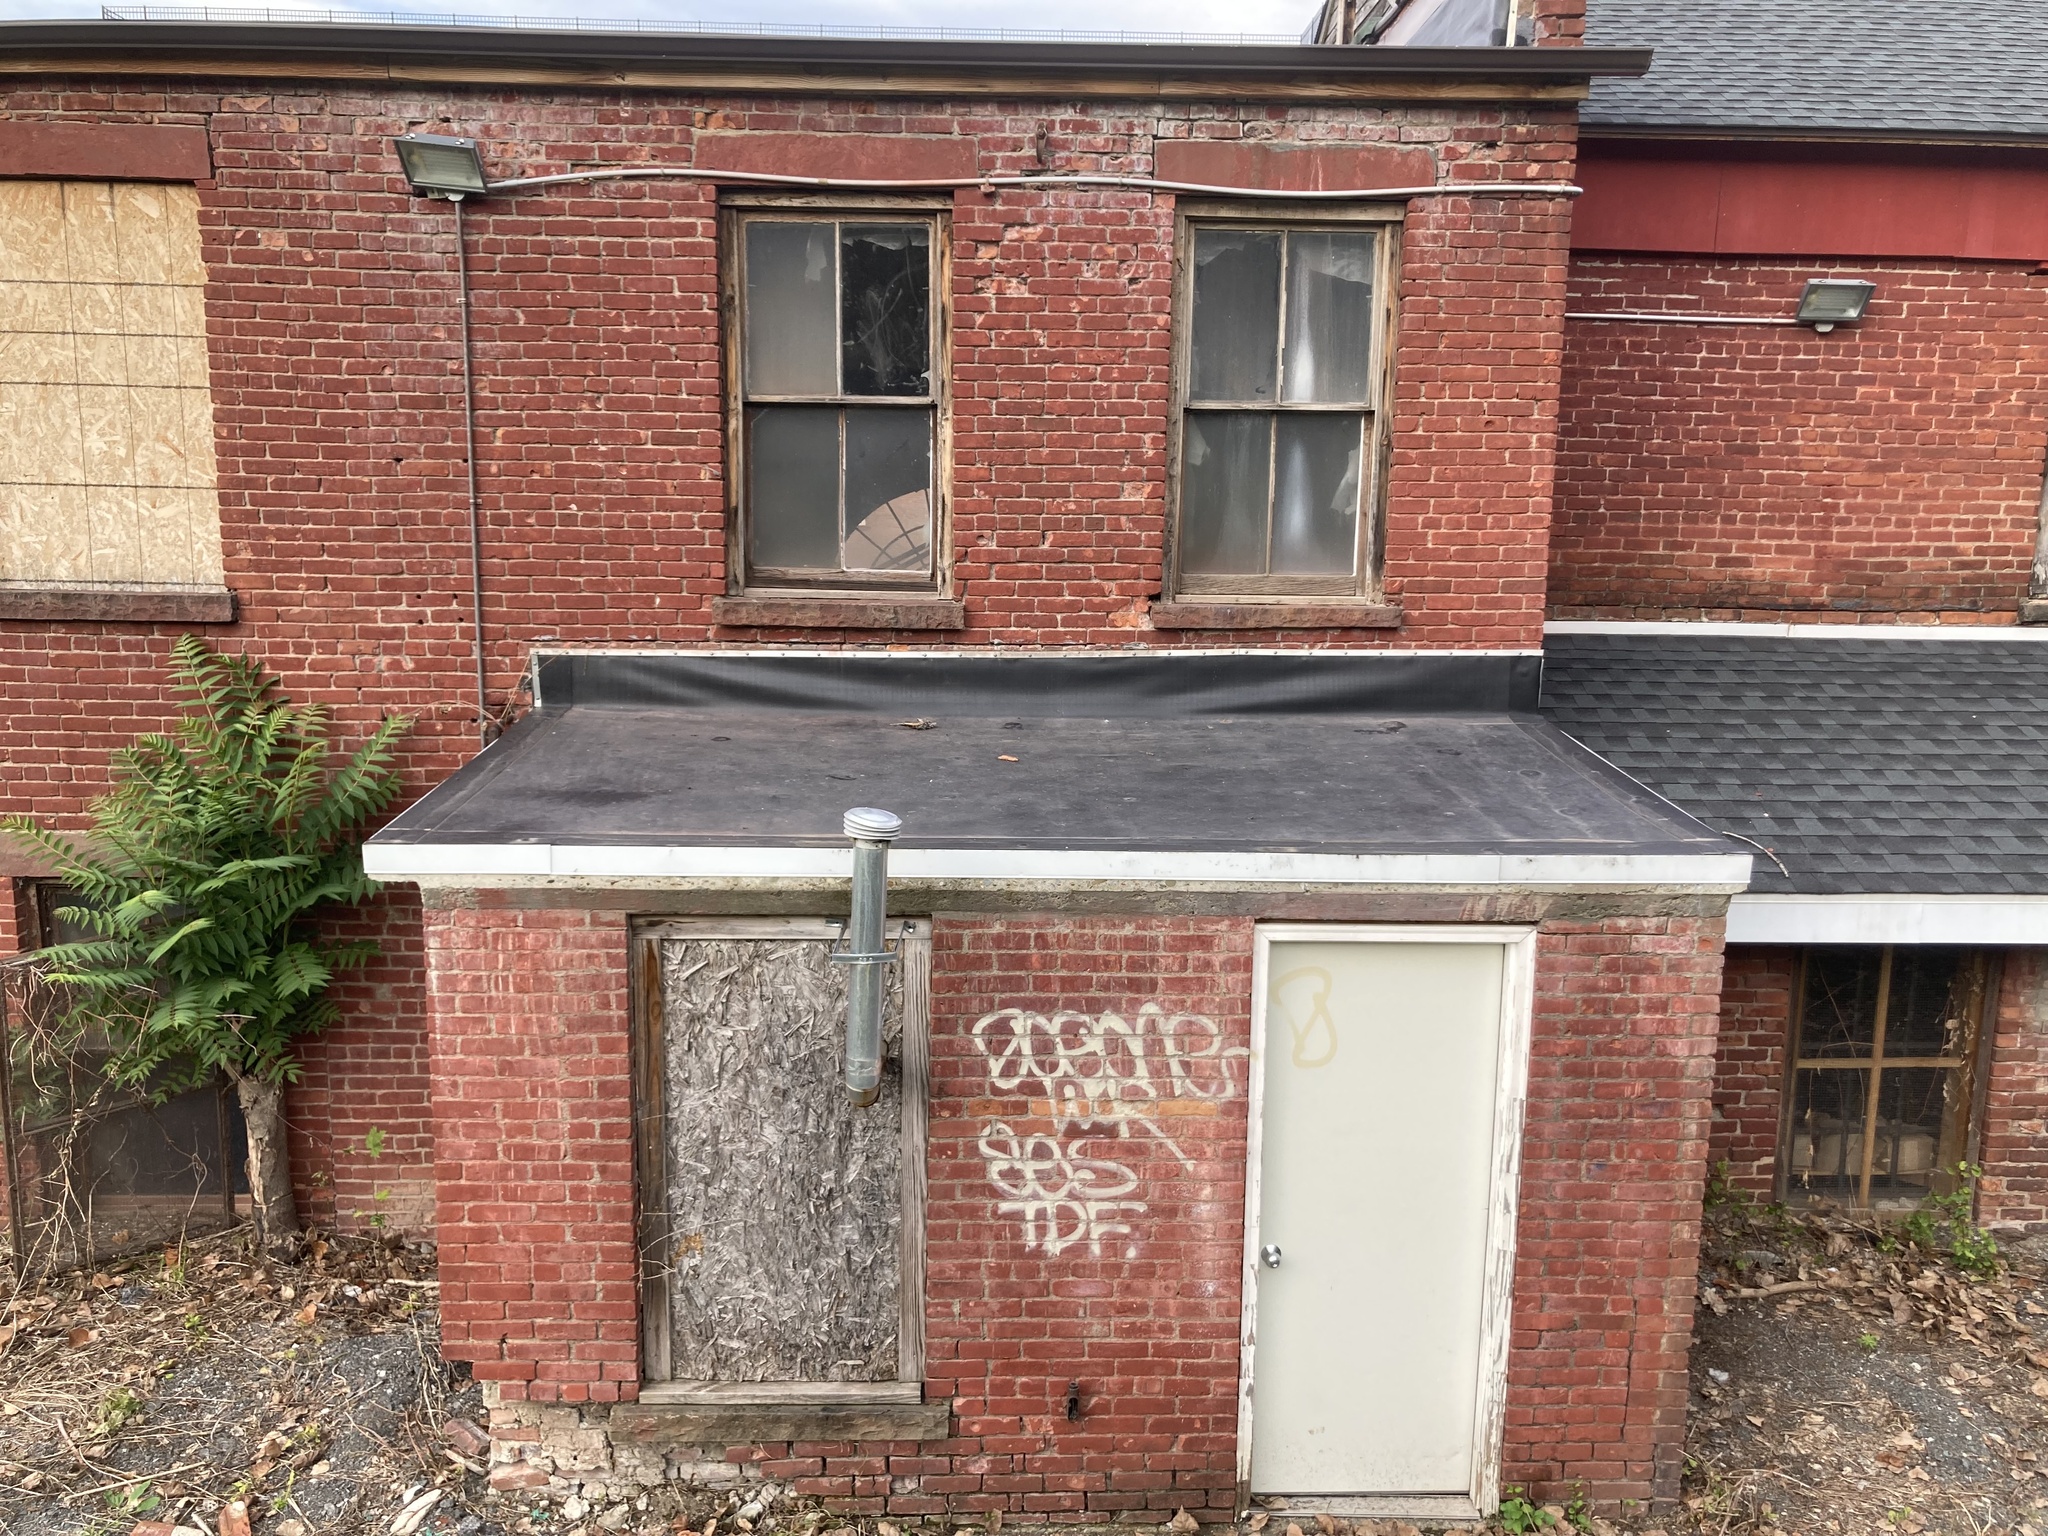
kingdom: Plantae
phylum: Tracheophyta
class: Magnoliopsida
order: Sapindales
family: Simaroubaceae
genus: Ailanthus
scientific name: Ailanthus altissima
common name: Tree-of-heaven
